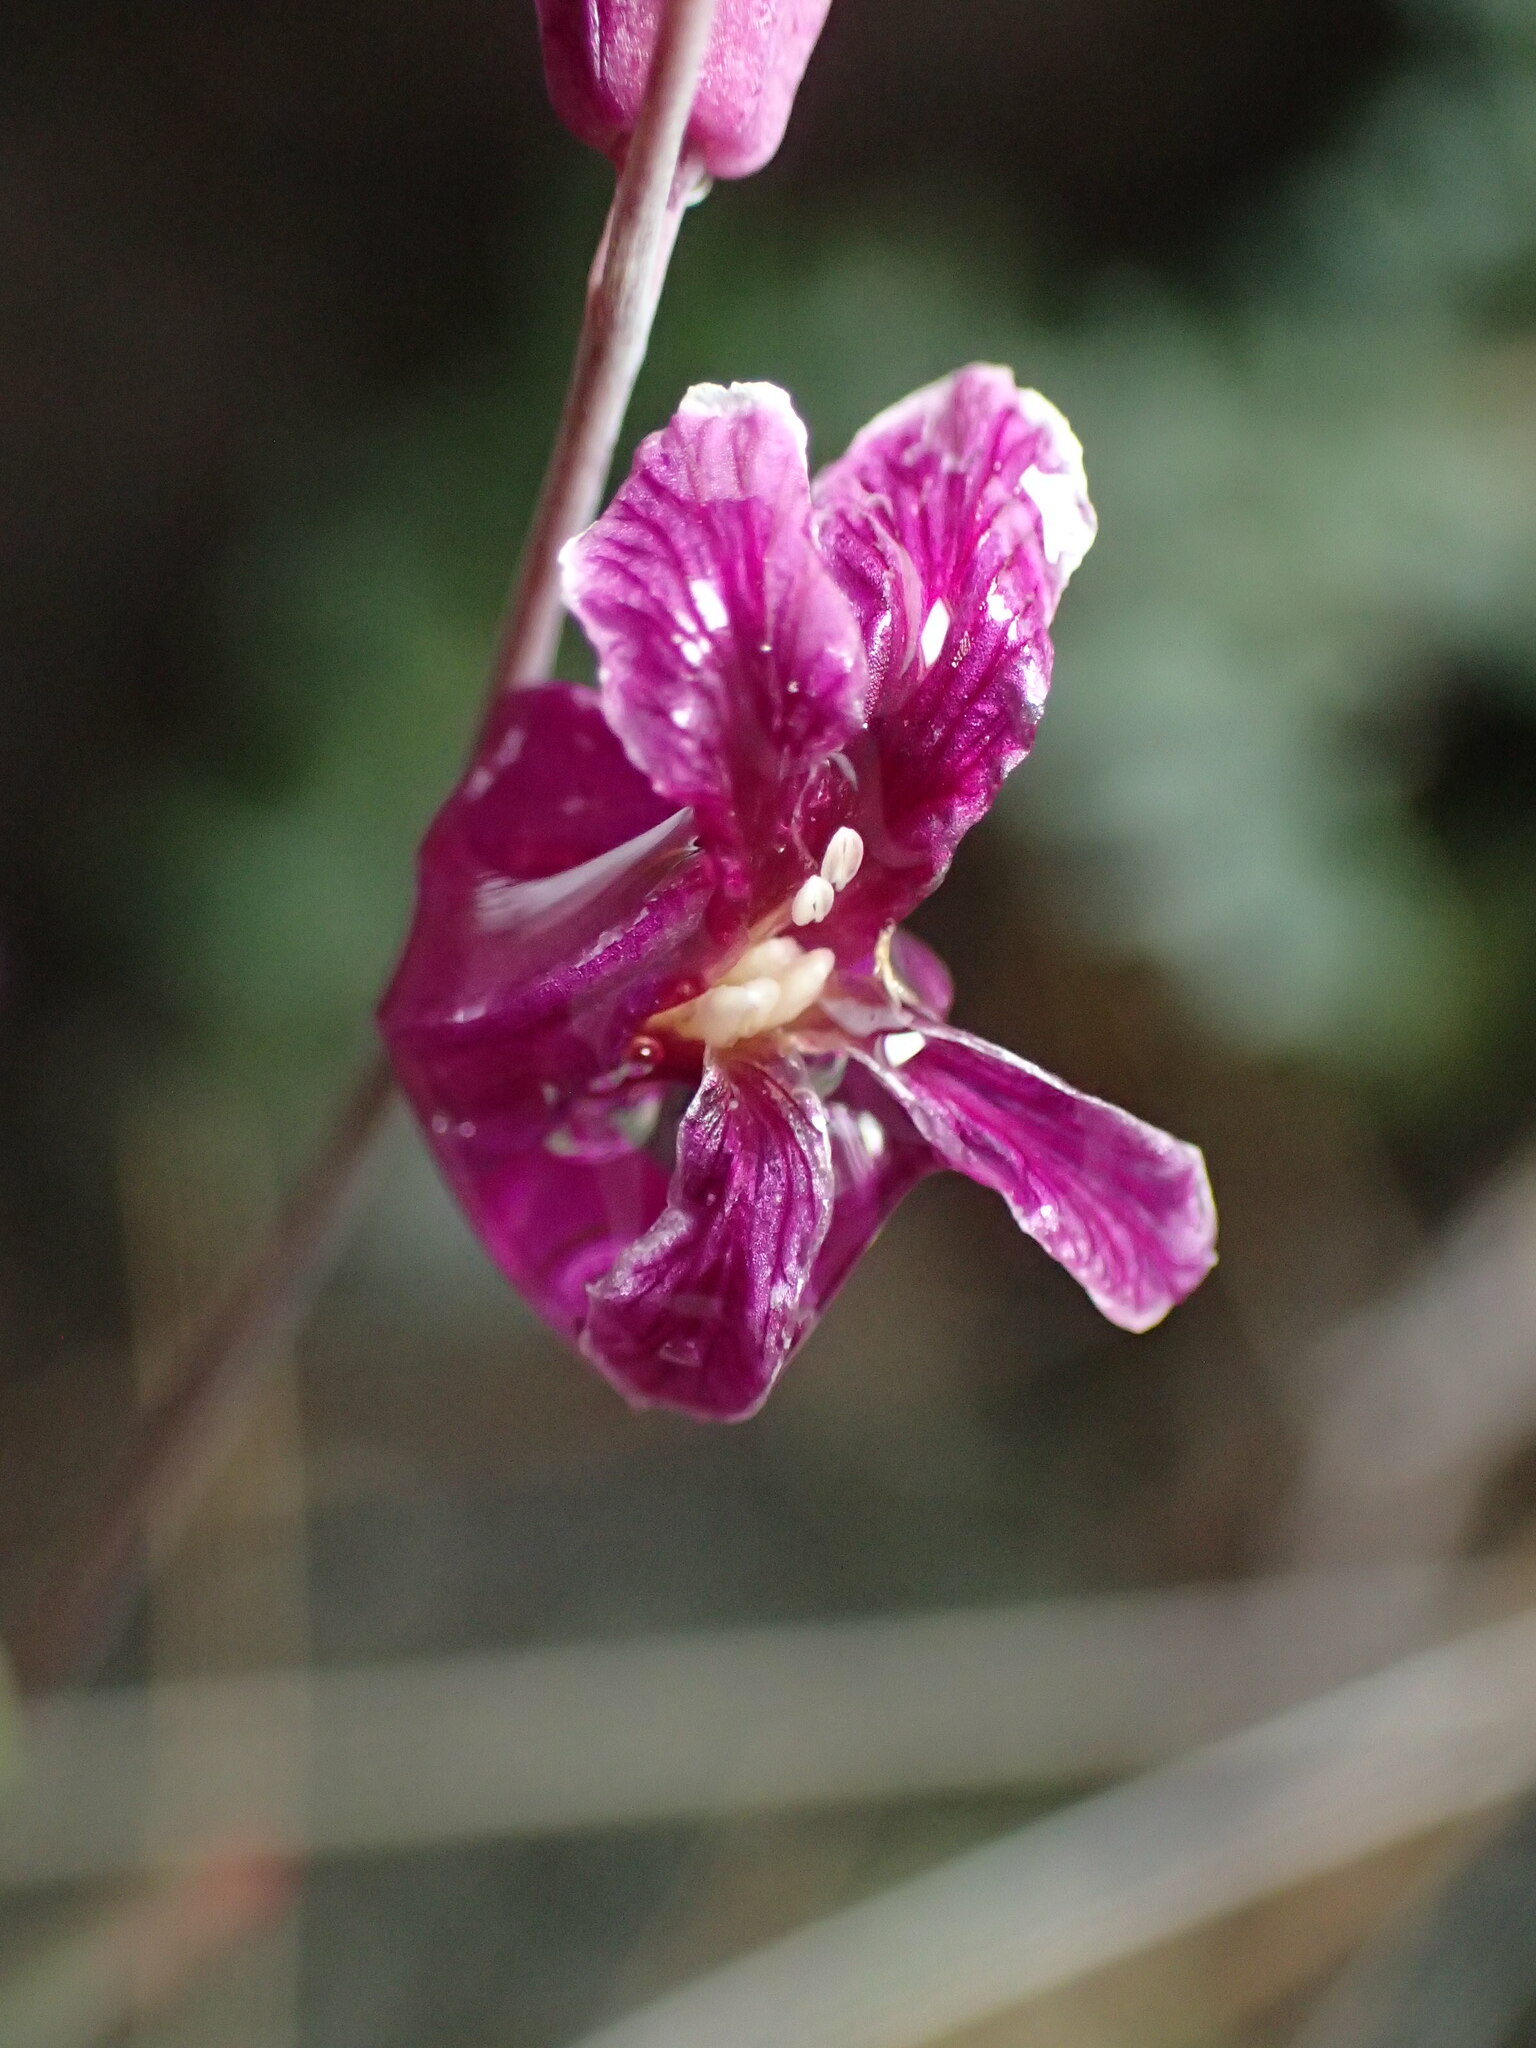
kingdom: Plantae
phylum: Tracheophyta
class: Magnoliopsida
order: Brassicales
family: Brassicaceae
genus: Streptanthus
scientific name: Streptanthus glandulosus
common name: Jewel-flower
